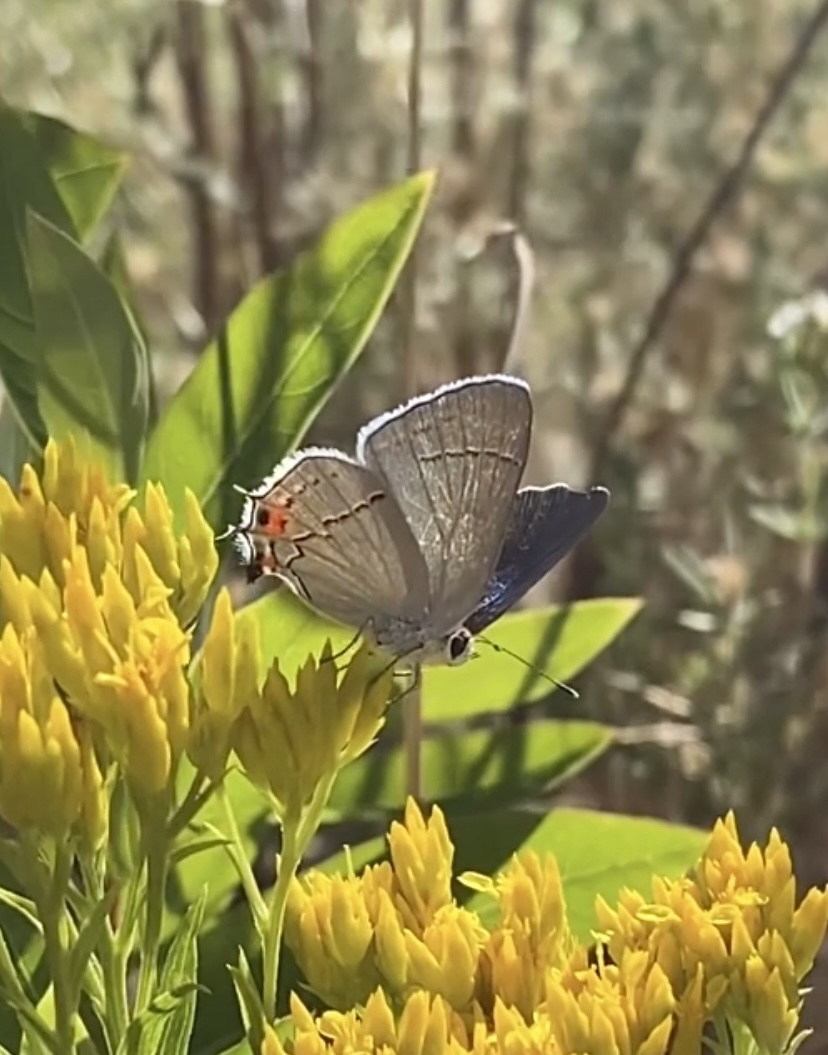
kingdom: Animalia
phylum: Arthropoda
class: Insecta
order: Lepidoptera
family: Lycaenidae
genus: Strymon
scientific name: Strymon melinus
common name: Gray hairstreak
